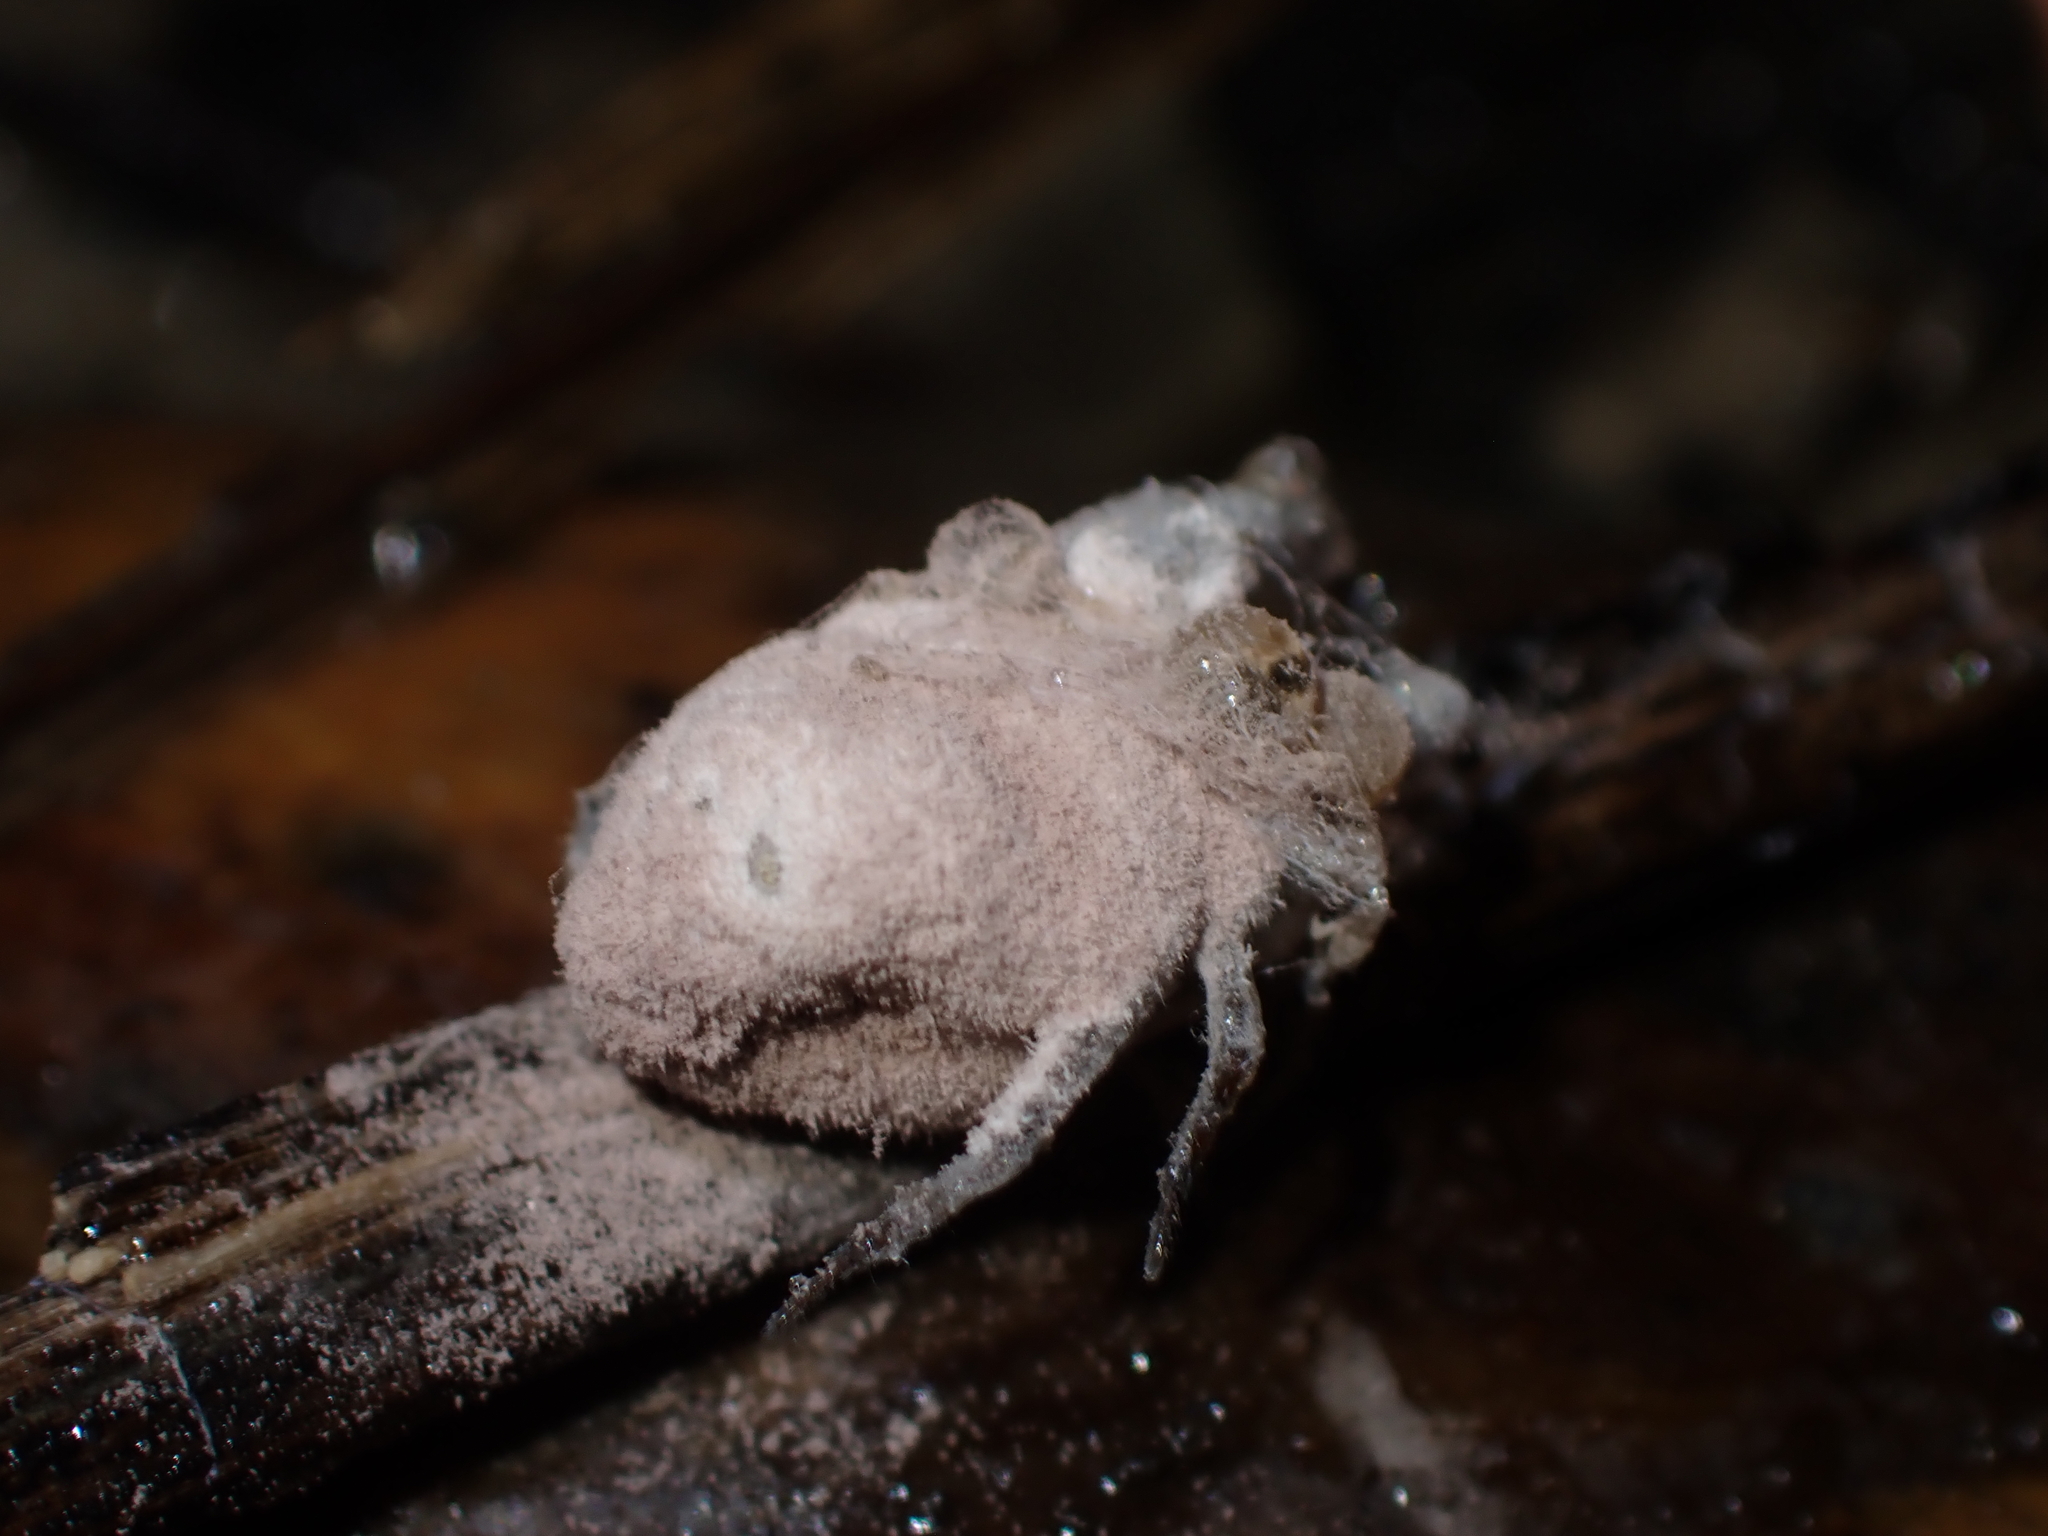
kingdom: Fungi
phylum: Ascomycota
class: Sordariomycetes
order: Hypocreales
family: Ophiocordycipitaceae
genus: Purpureocillium
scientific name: Purpureocillium atypicola
